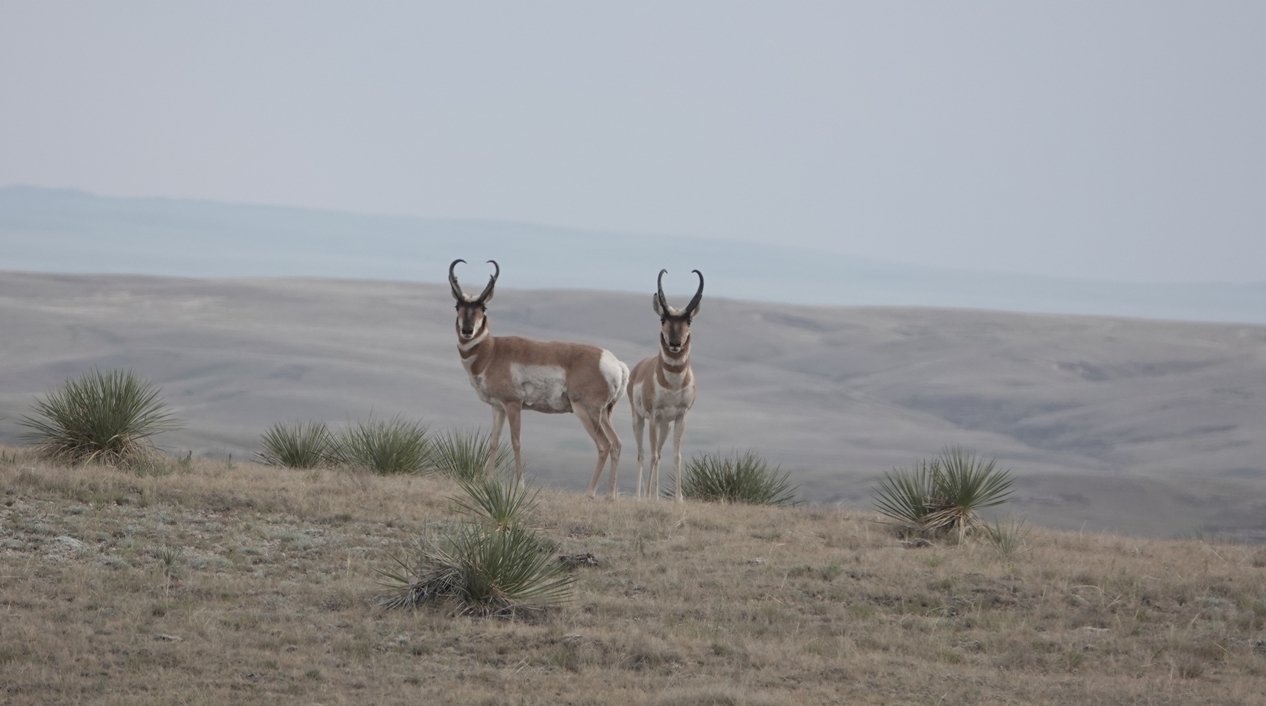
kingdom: Animalia
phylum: Chordata
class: Mammalia
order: Artiodactyla
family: Antilocapridae
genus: Antilocapra
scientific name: Antilocapra americana
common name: Pronghorn
